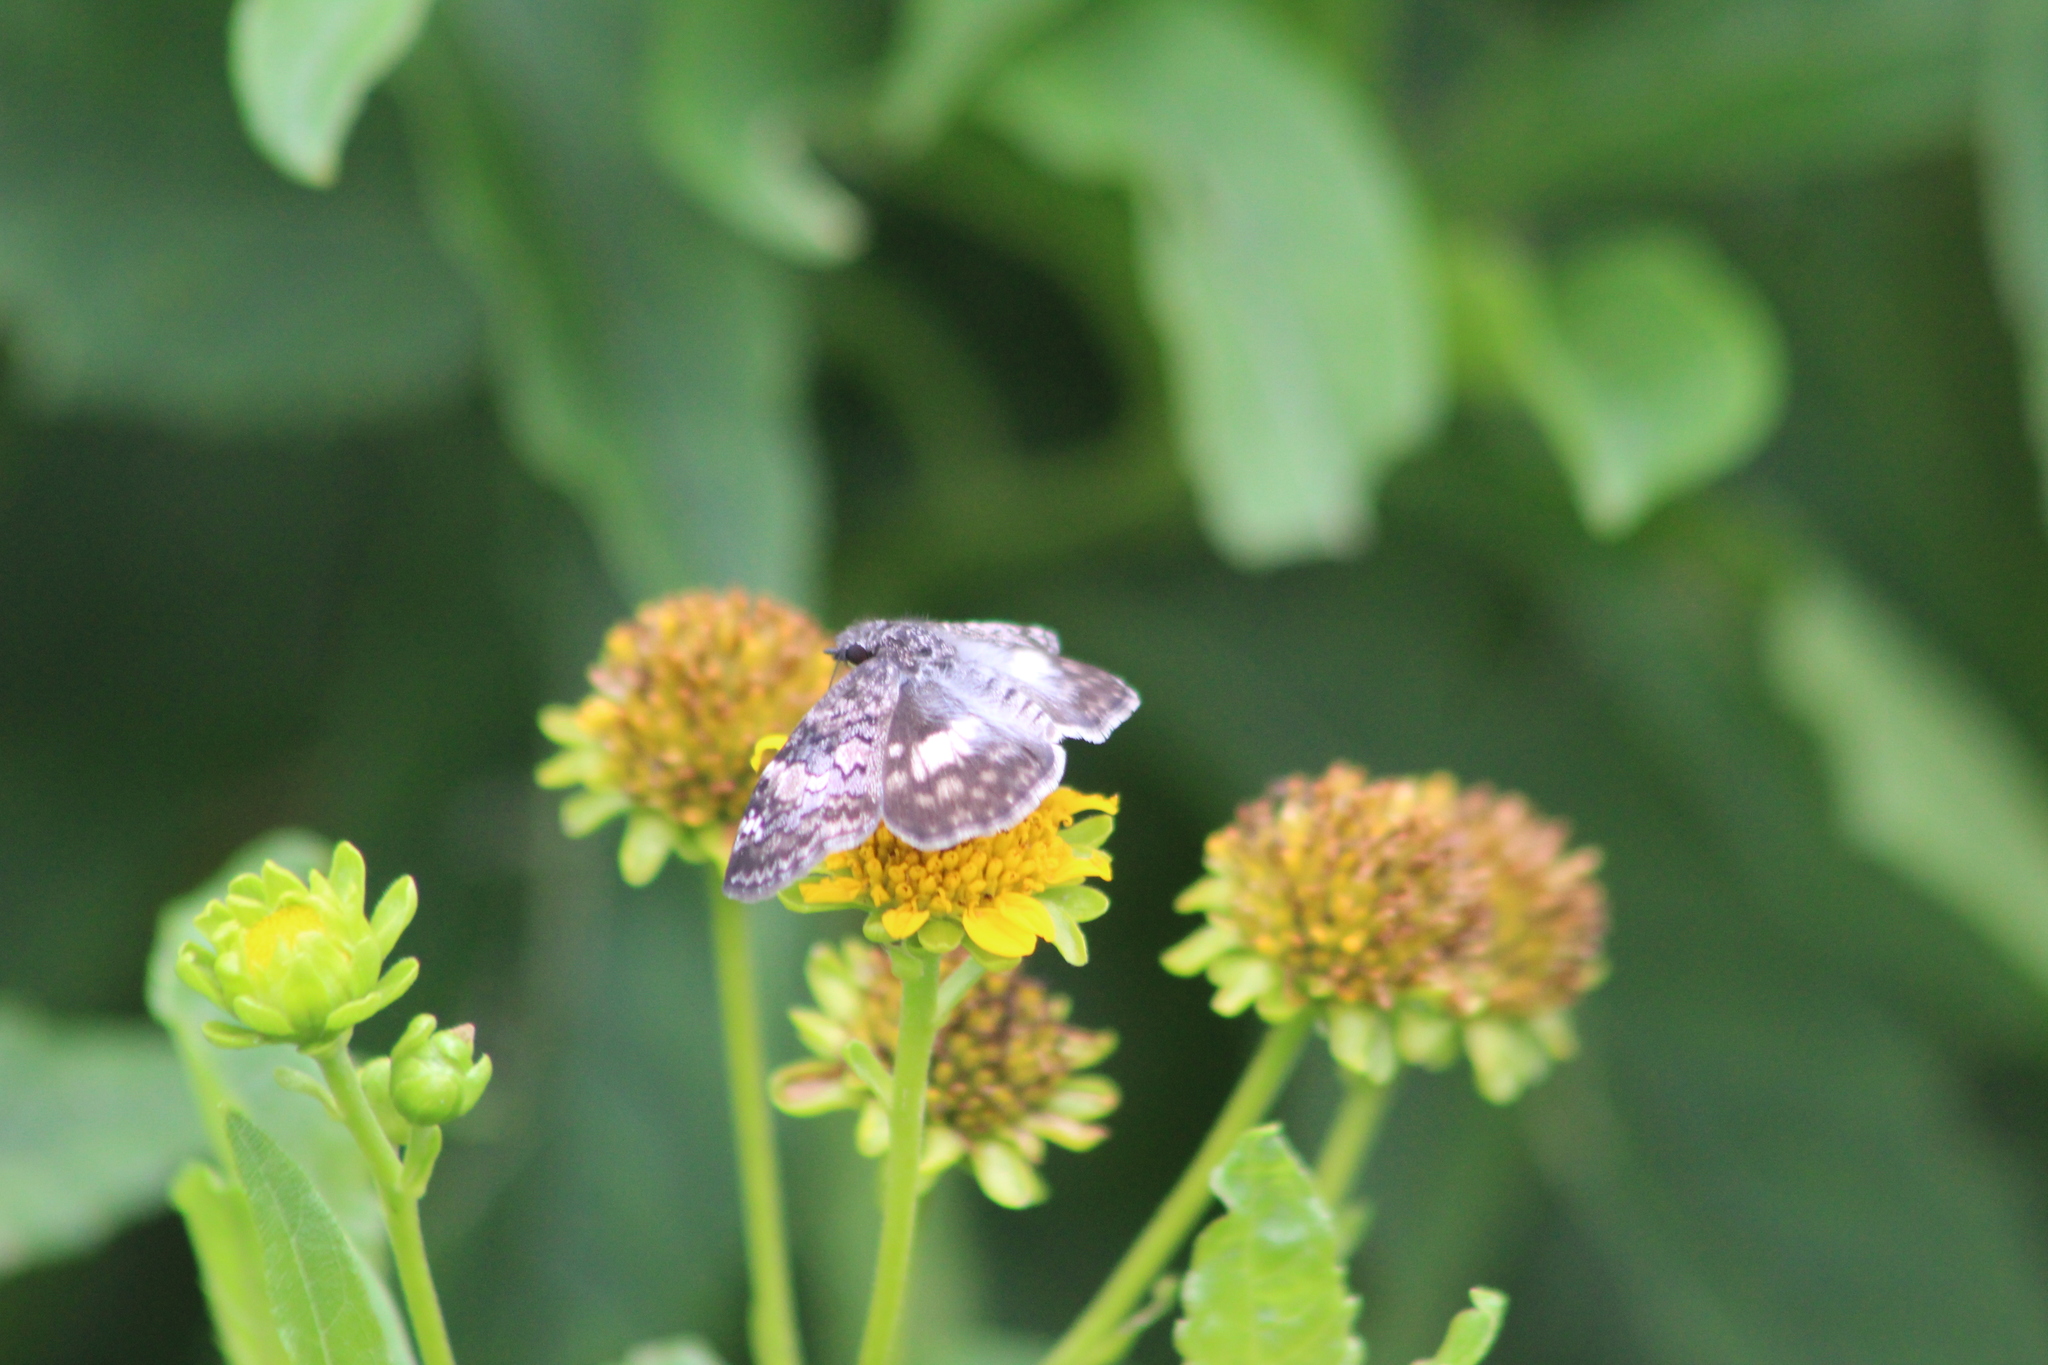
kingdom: Animalia
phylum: Arthropoda
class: Insecta
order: Lepidoptera
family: Hesperiidae
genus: Chiothion
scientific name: Chiothion georgina
